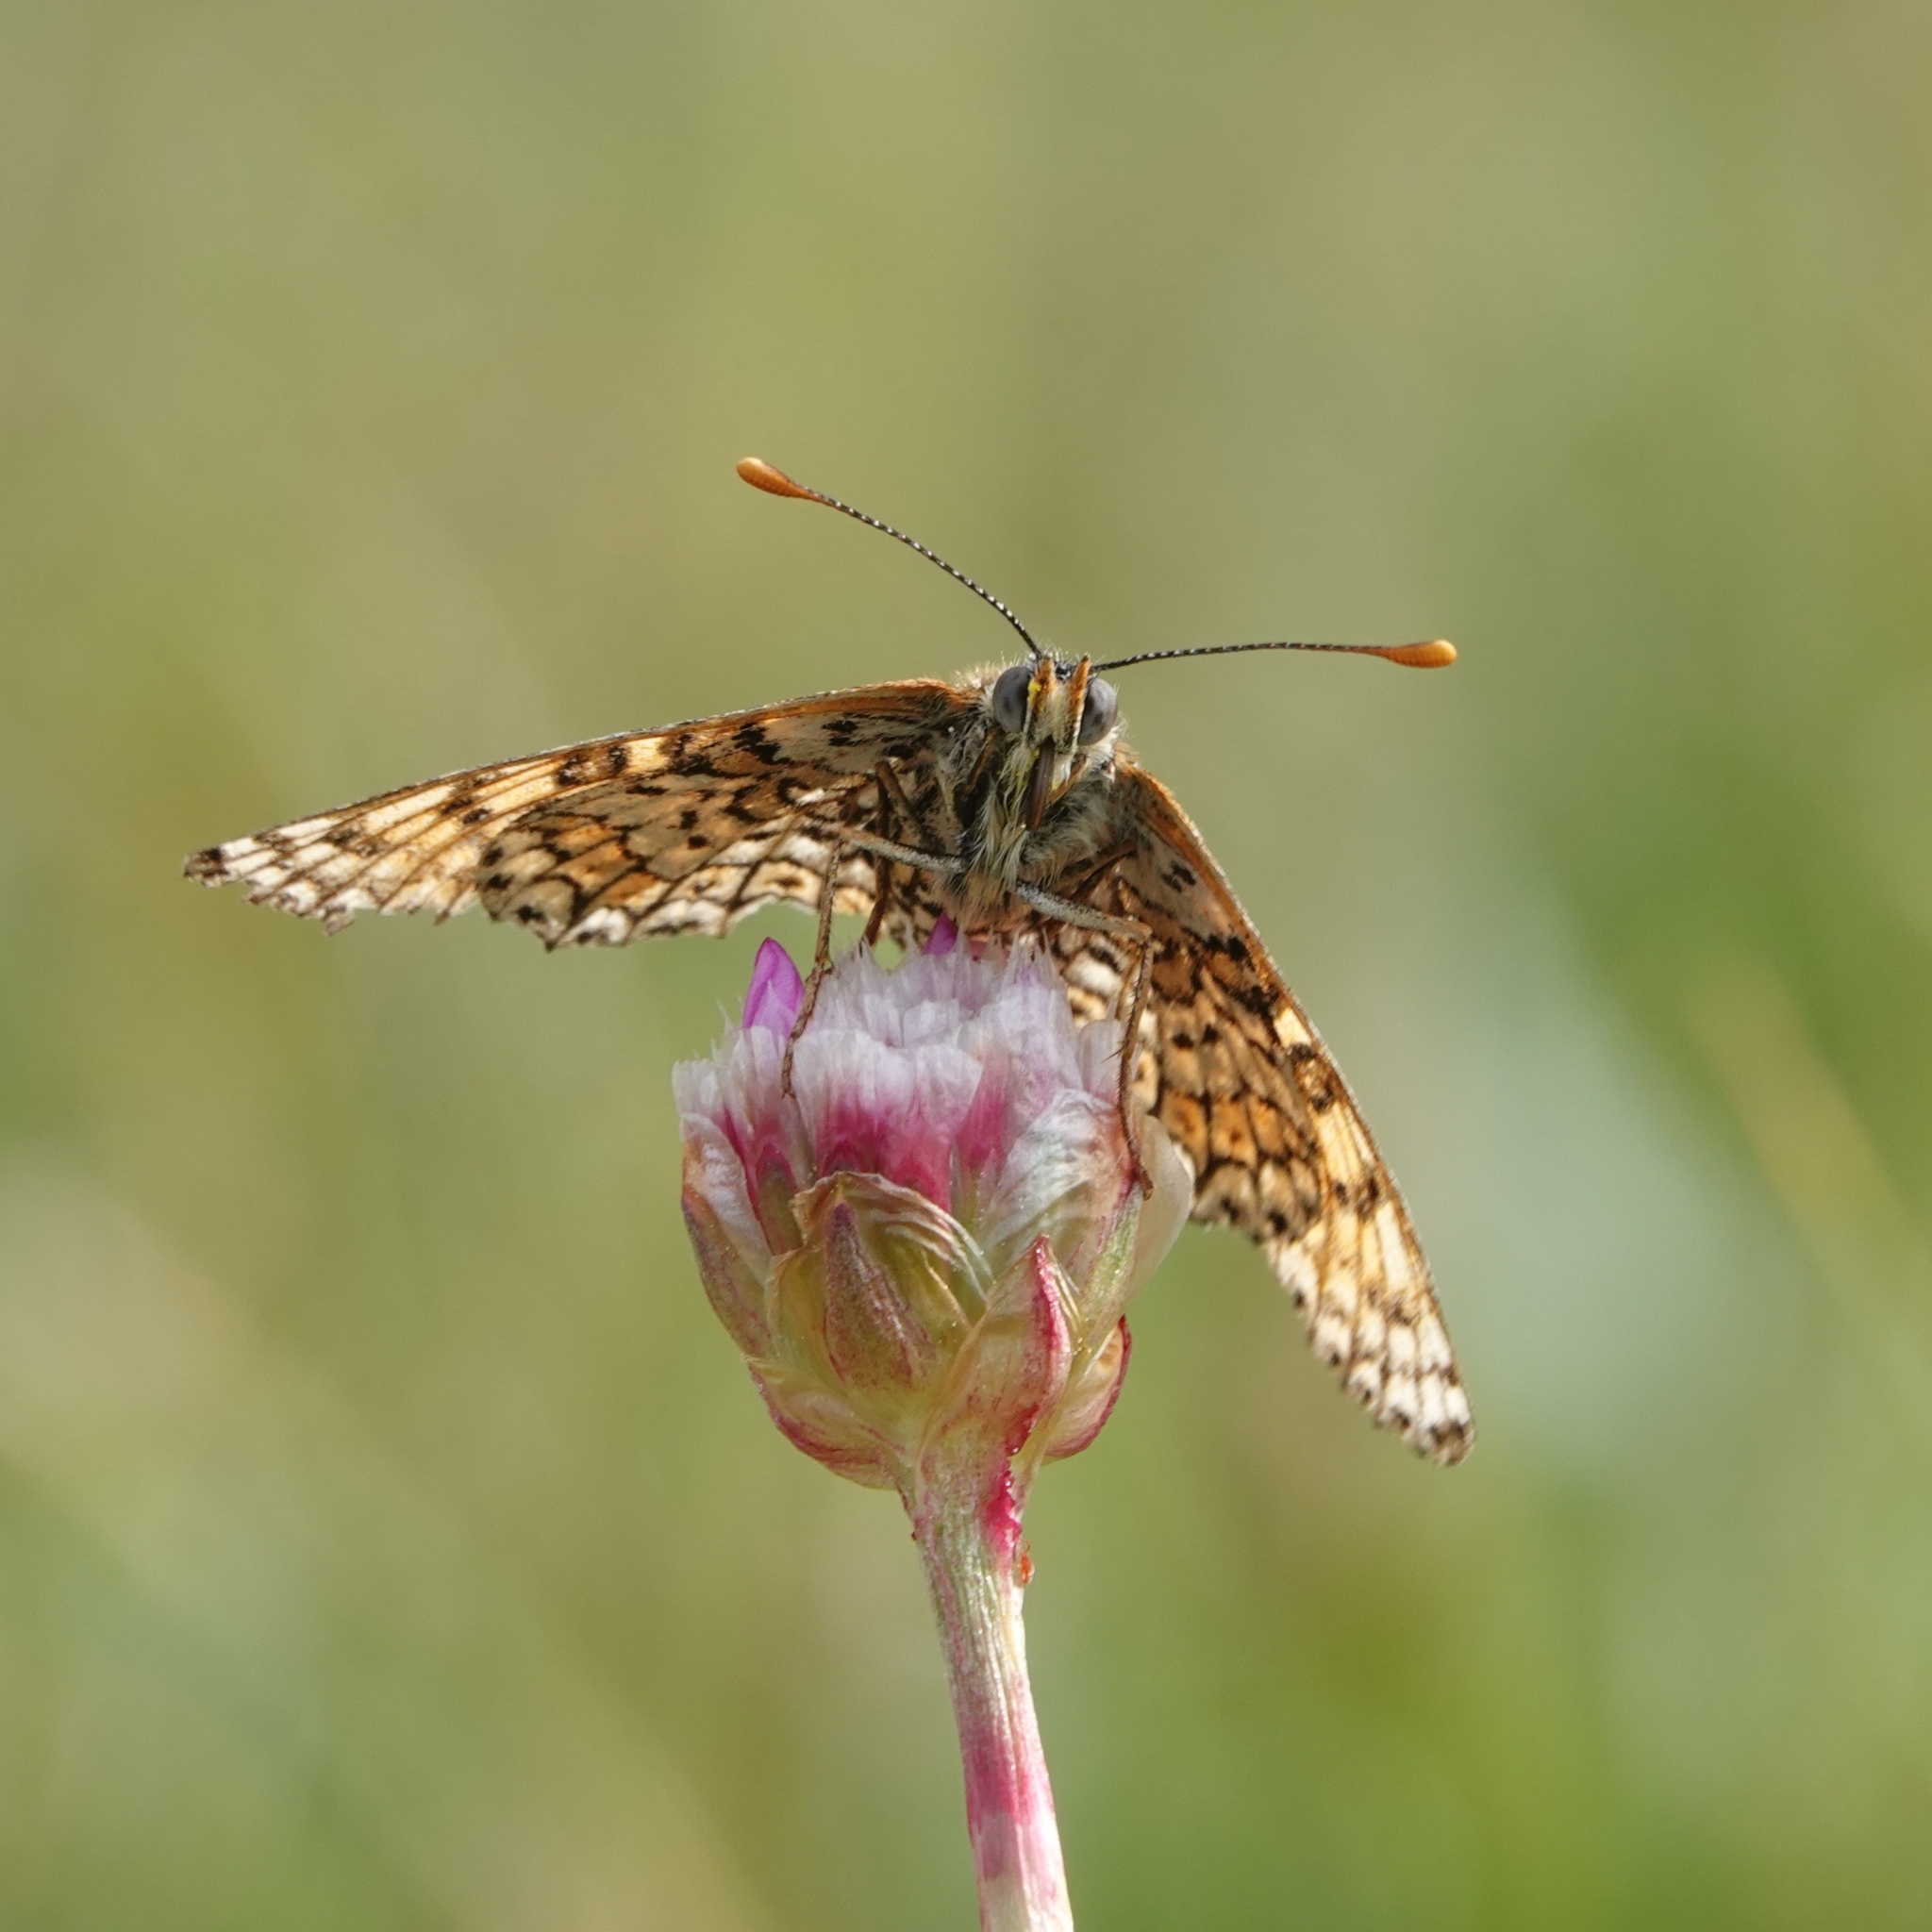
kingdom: Animalia
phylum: Arthropoda
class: Insecta
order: Lepidoptera
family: Nymphalidae
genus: Melitaea
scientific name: Melitaea cinxia
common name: Glanville fritillary
